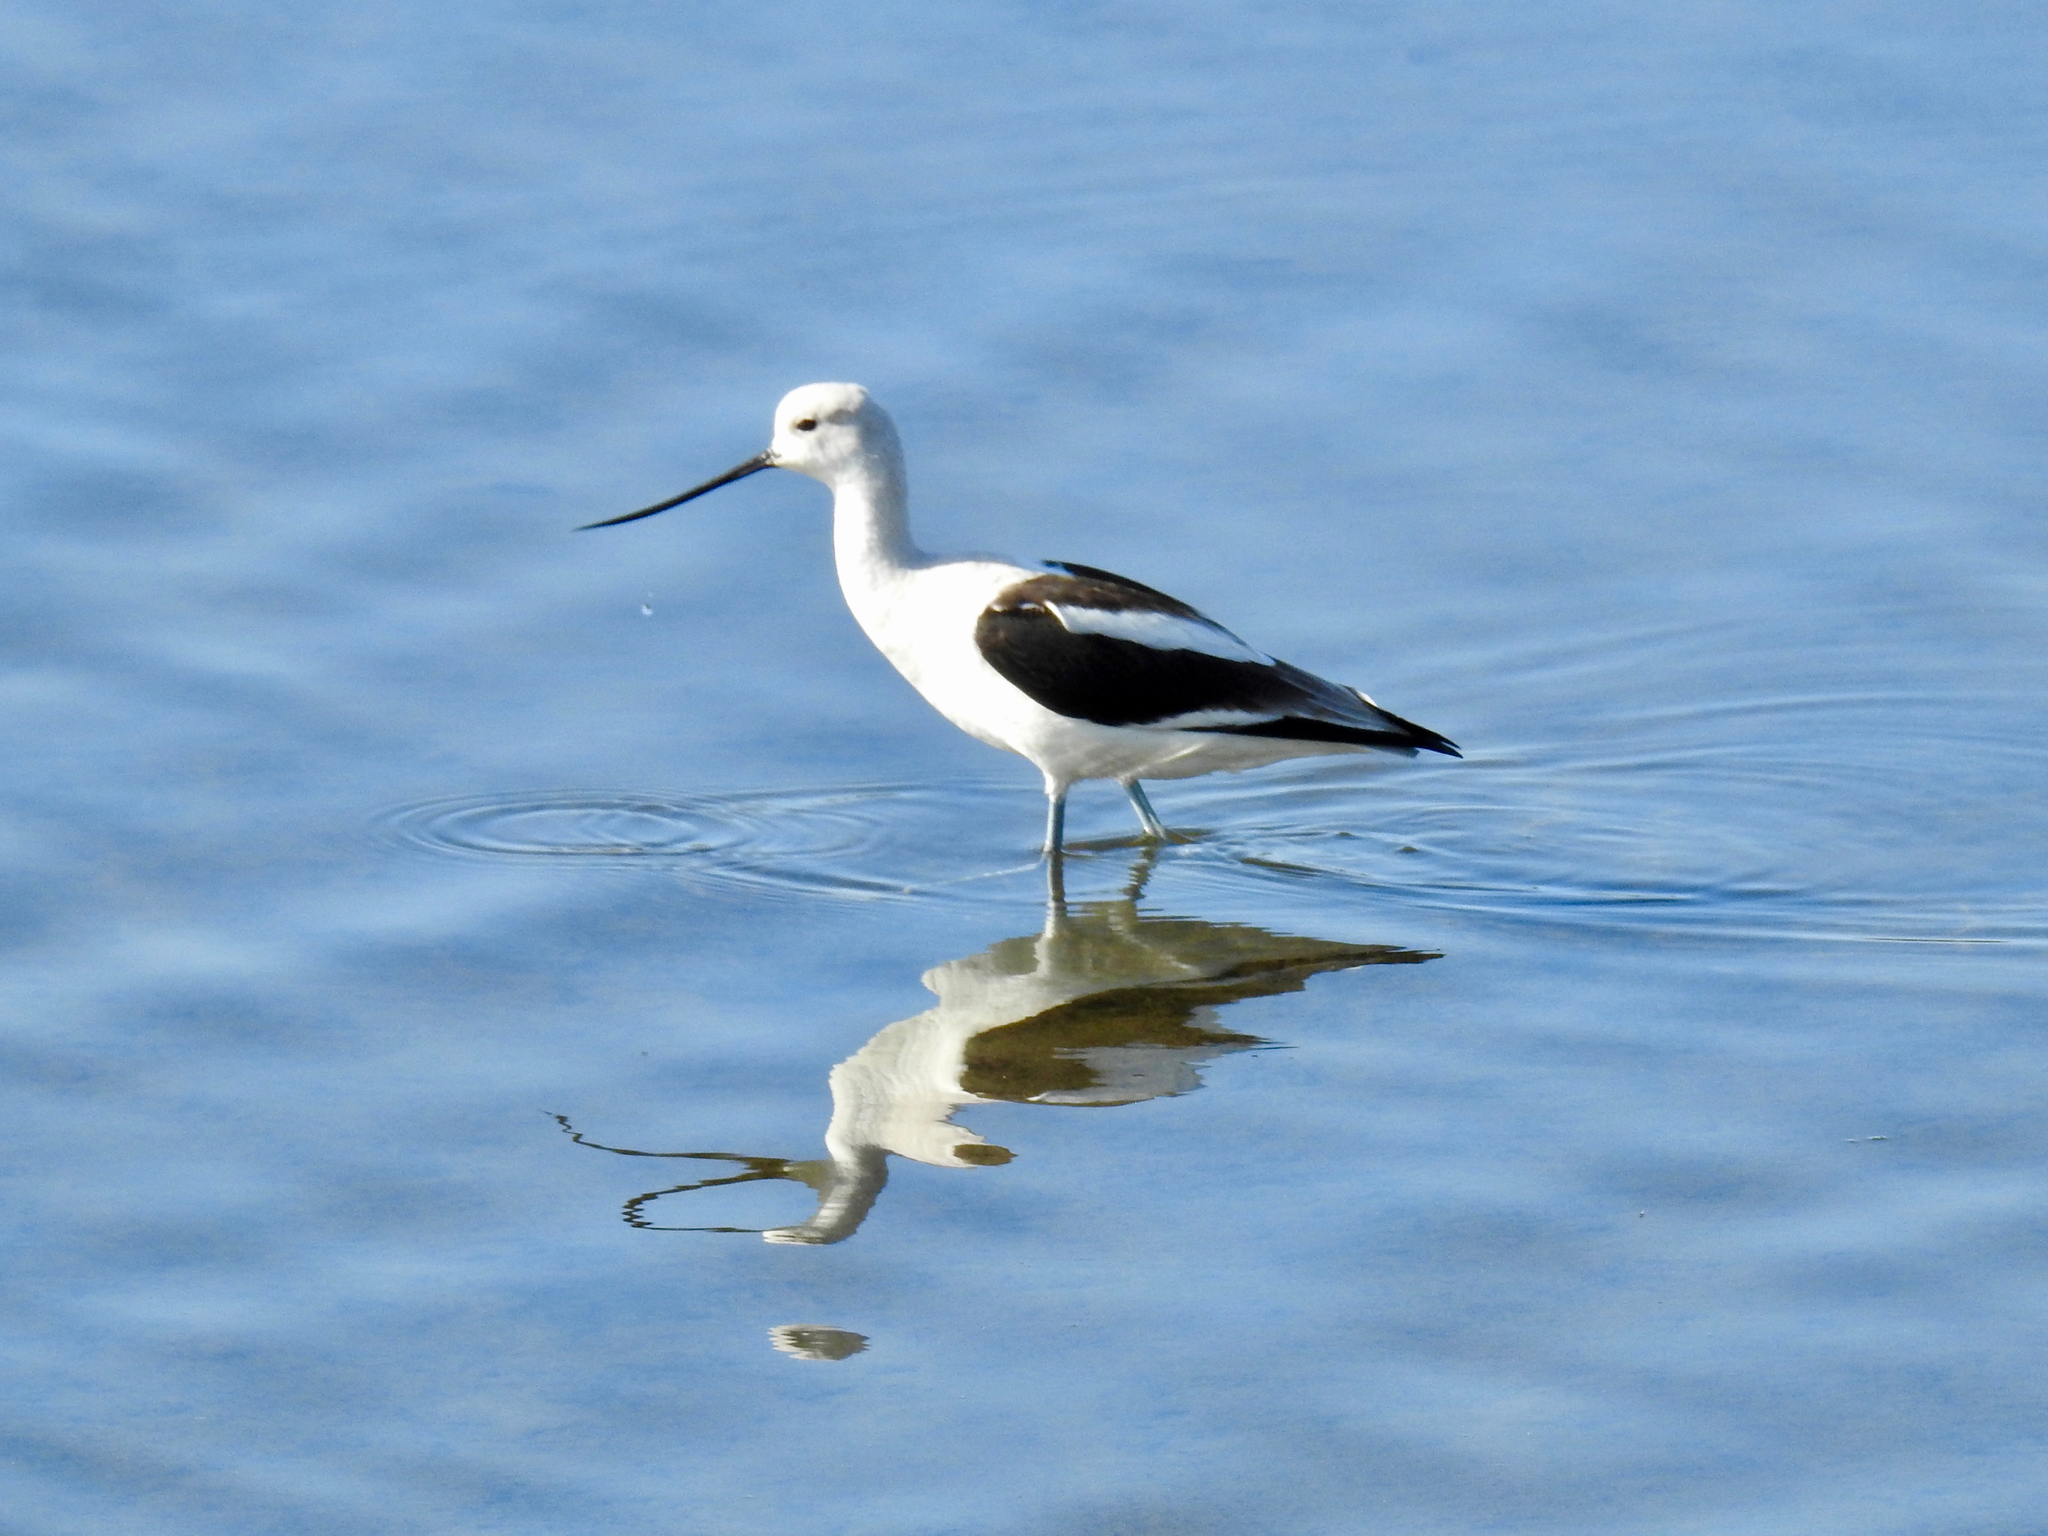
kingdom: Animalia
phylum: Chordata
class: Aves
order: Charadriiformes
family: Recurvirostridae
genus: Recurvirostra
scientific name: Recurvirostra americana
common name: American avocet
